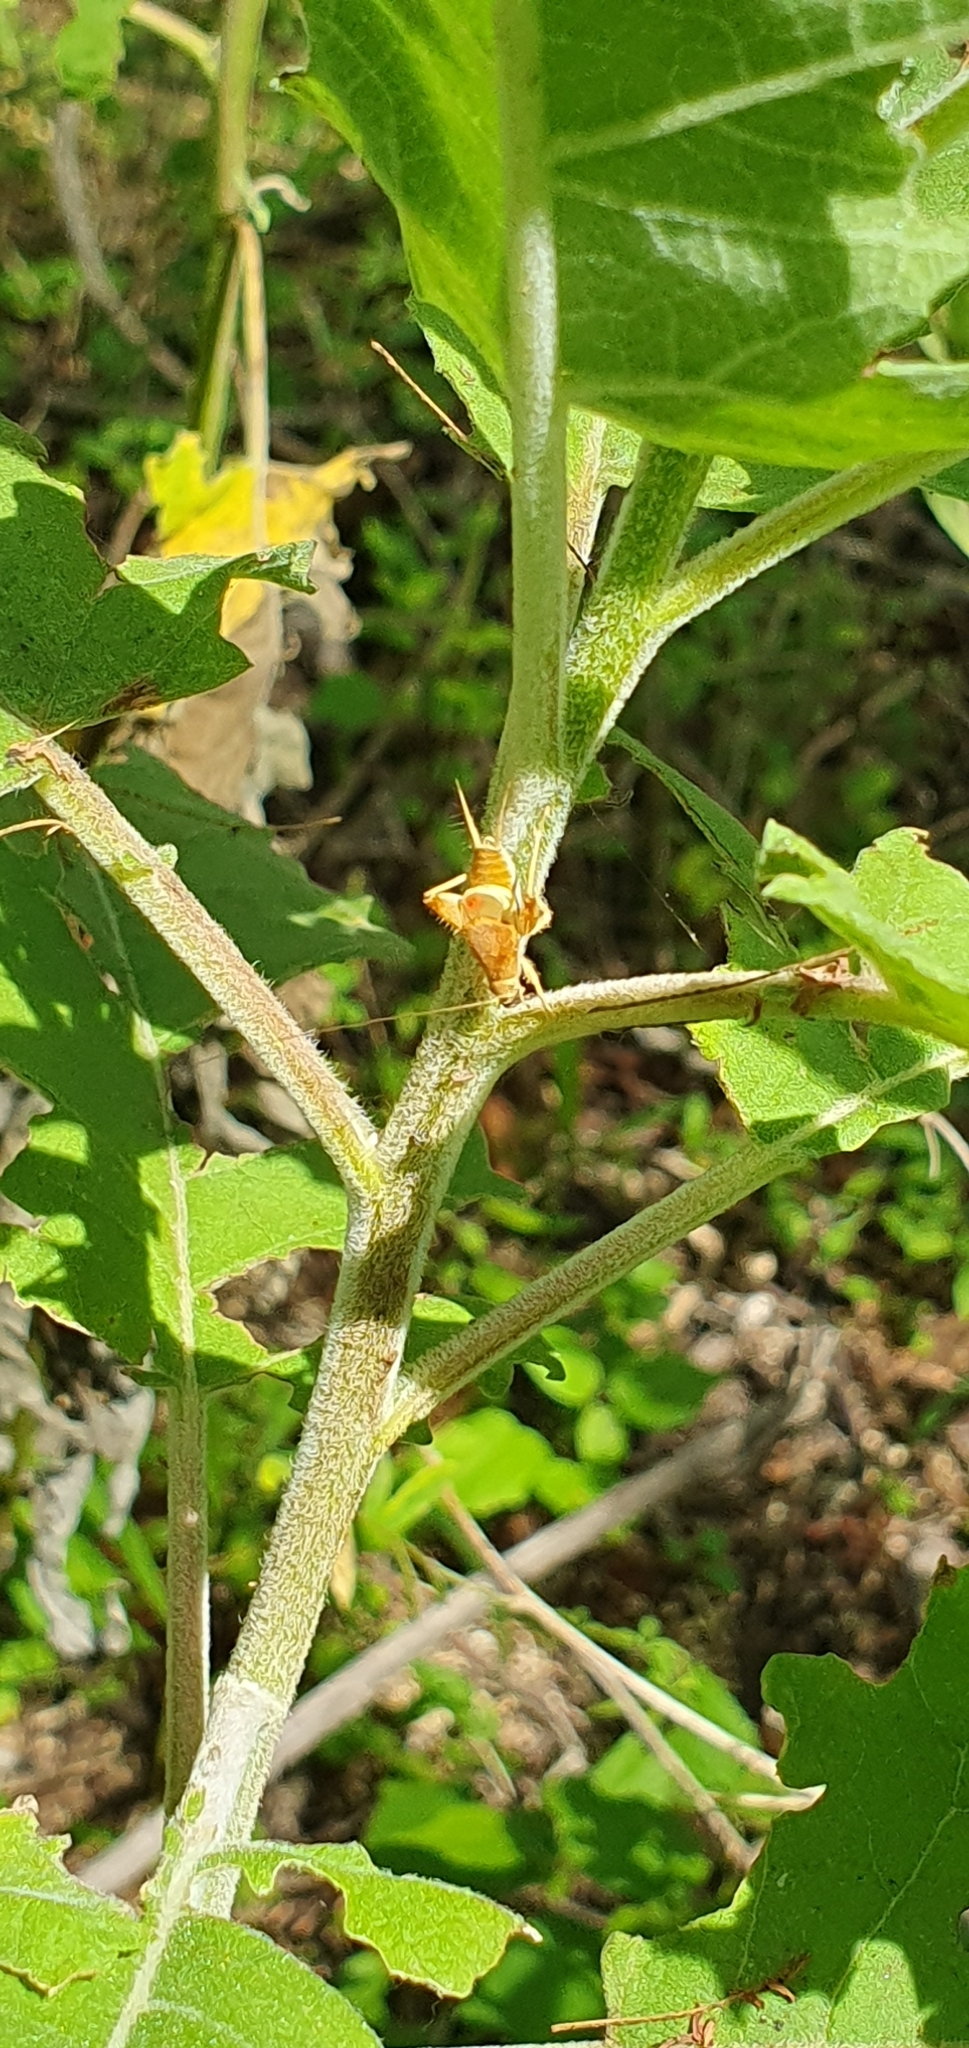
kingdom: Animalia
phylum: Arthropoda
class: Insecta
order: Orthoptera
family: Mogoplistidae
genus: Ectatoderus
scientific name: Ectatoderus hesperus
